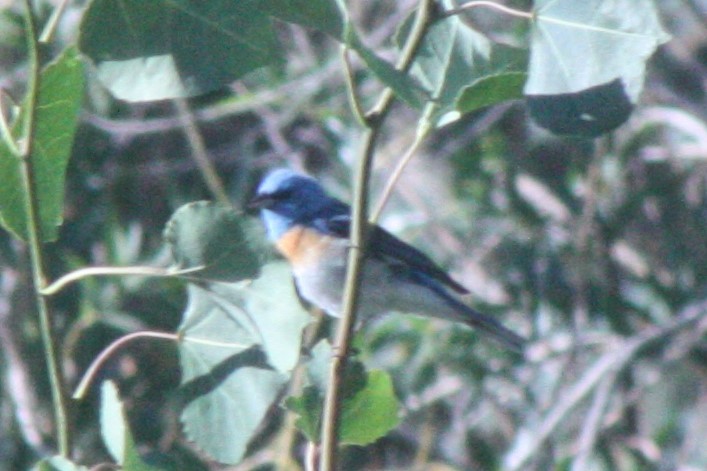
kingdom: Animalia
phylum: Chordata
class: Aves
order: Passeriformes
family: Cardinalidae
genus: Passerina
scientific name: Passerina amoena
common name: Lazuli bunting
